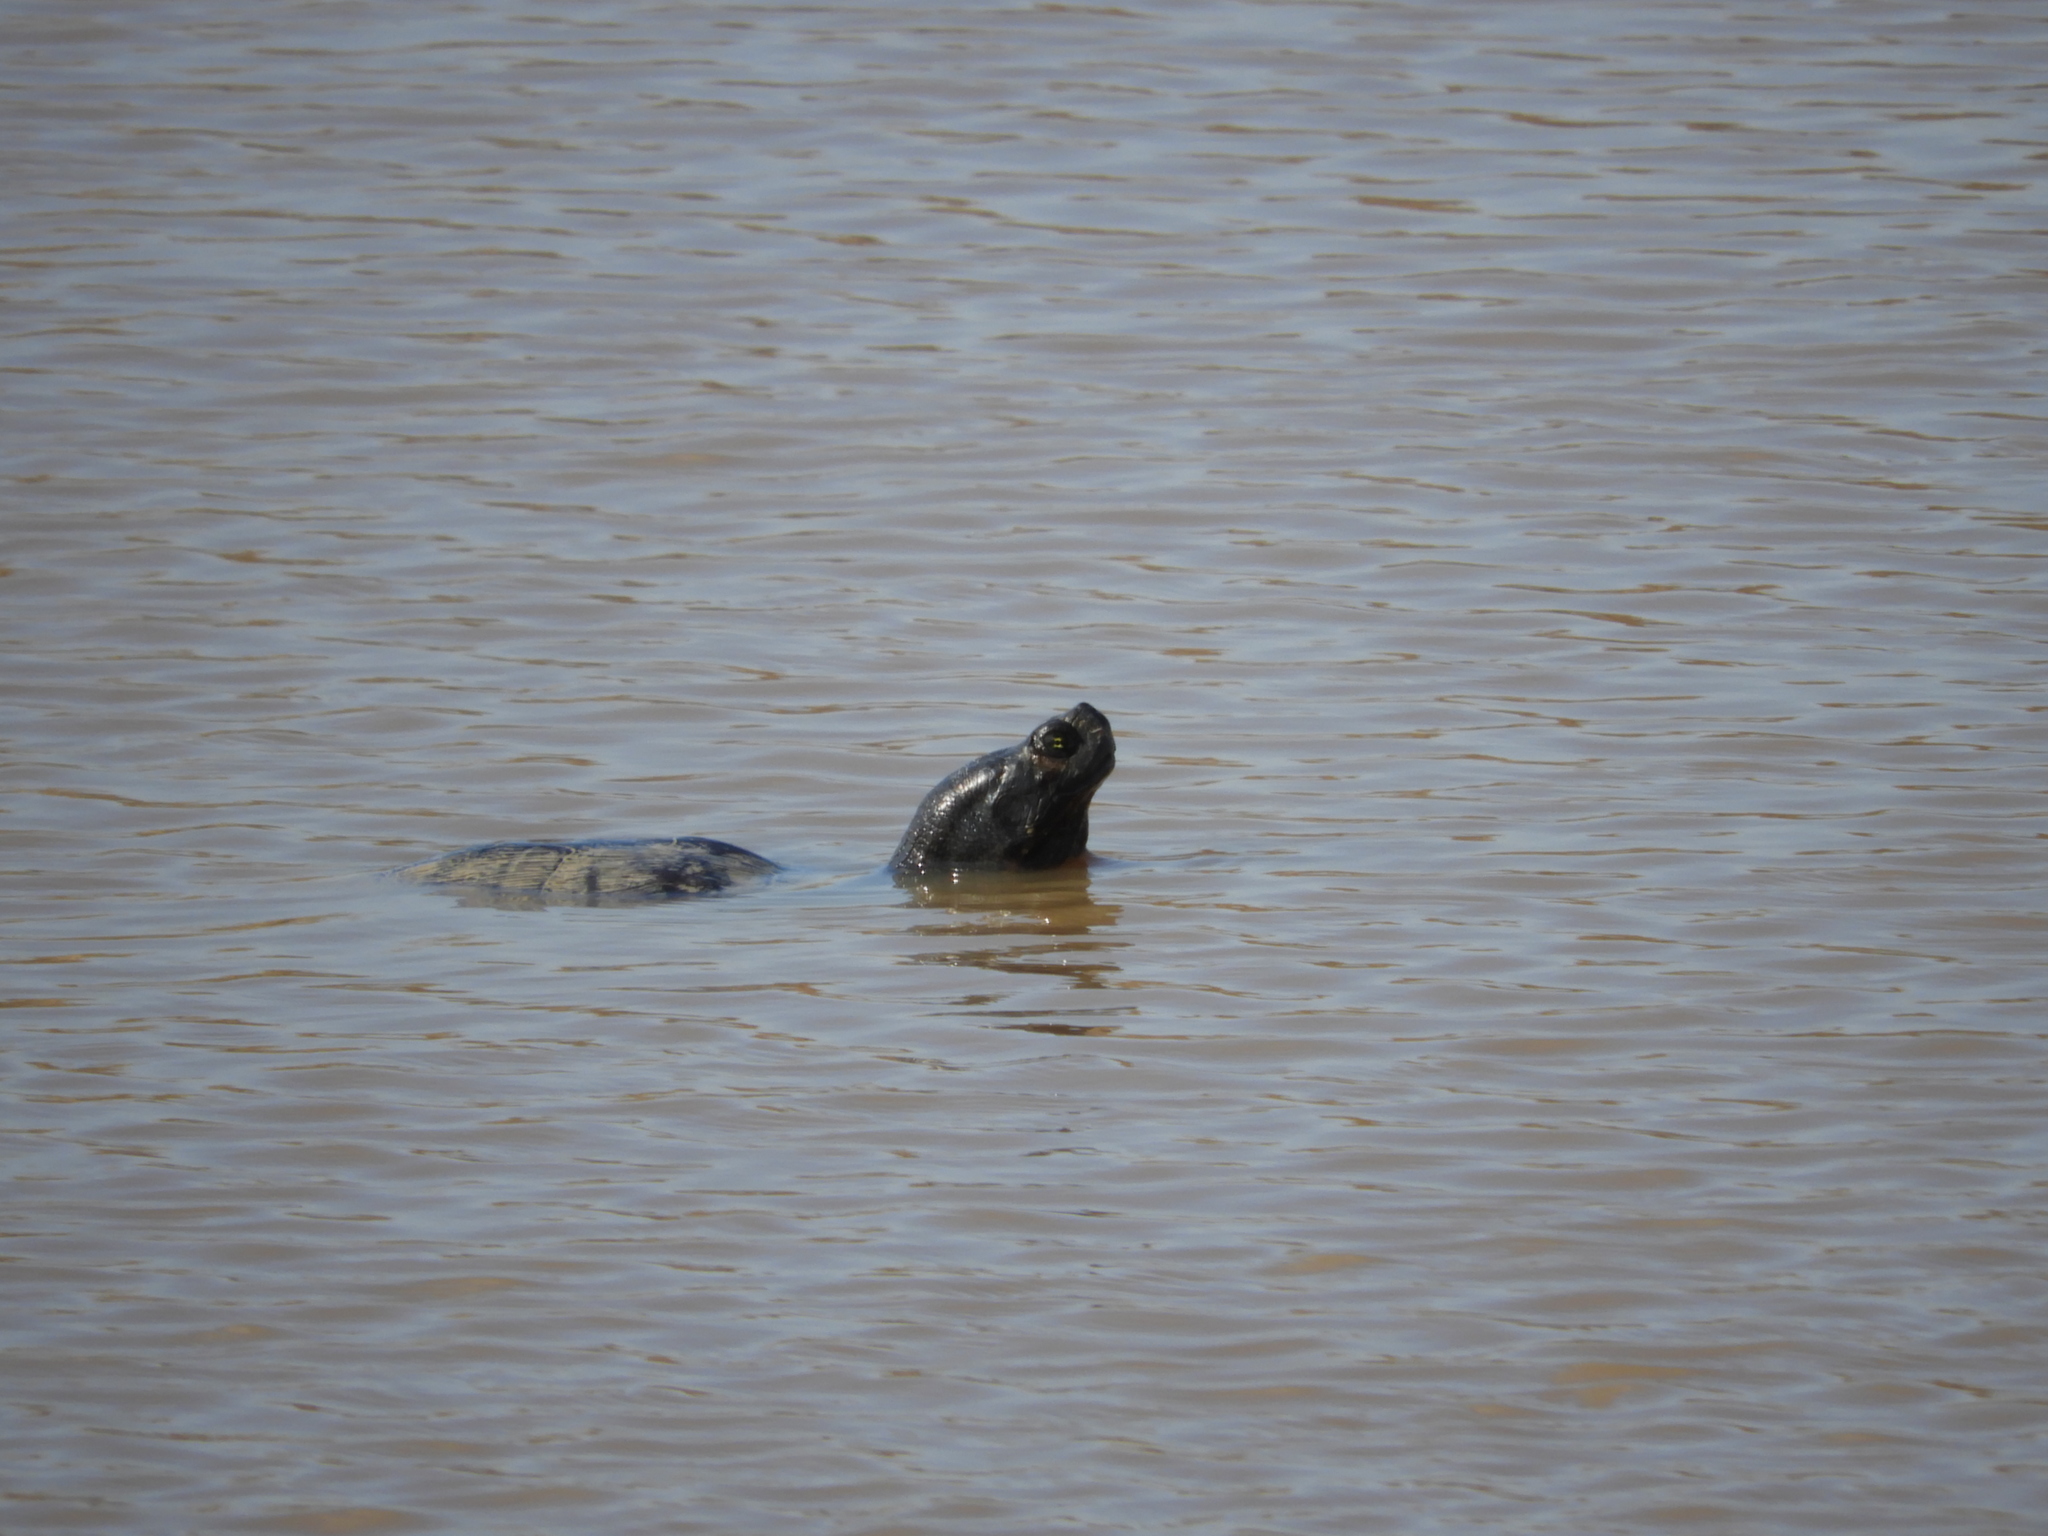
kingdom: Animalia
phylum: Chordata
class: Testudines
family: Emydidae
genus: Pseudemys
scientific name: Pseudemys rubriventris
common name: American red-bellied turtle
